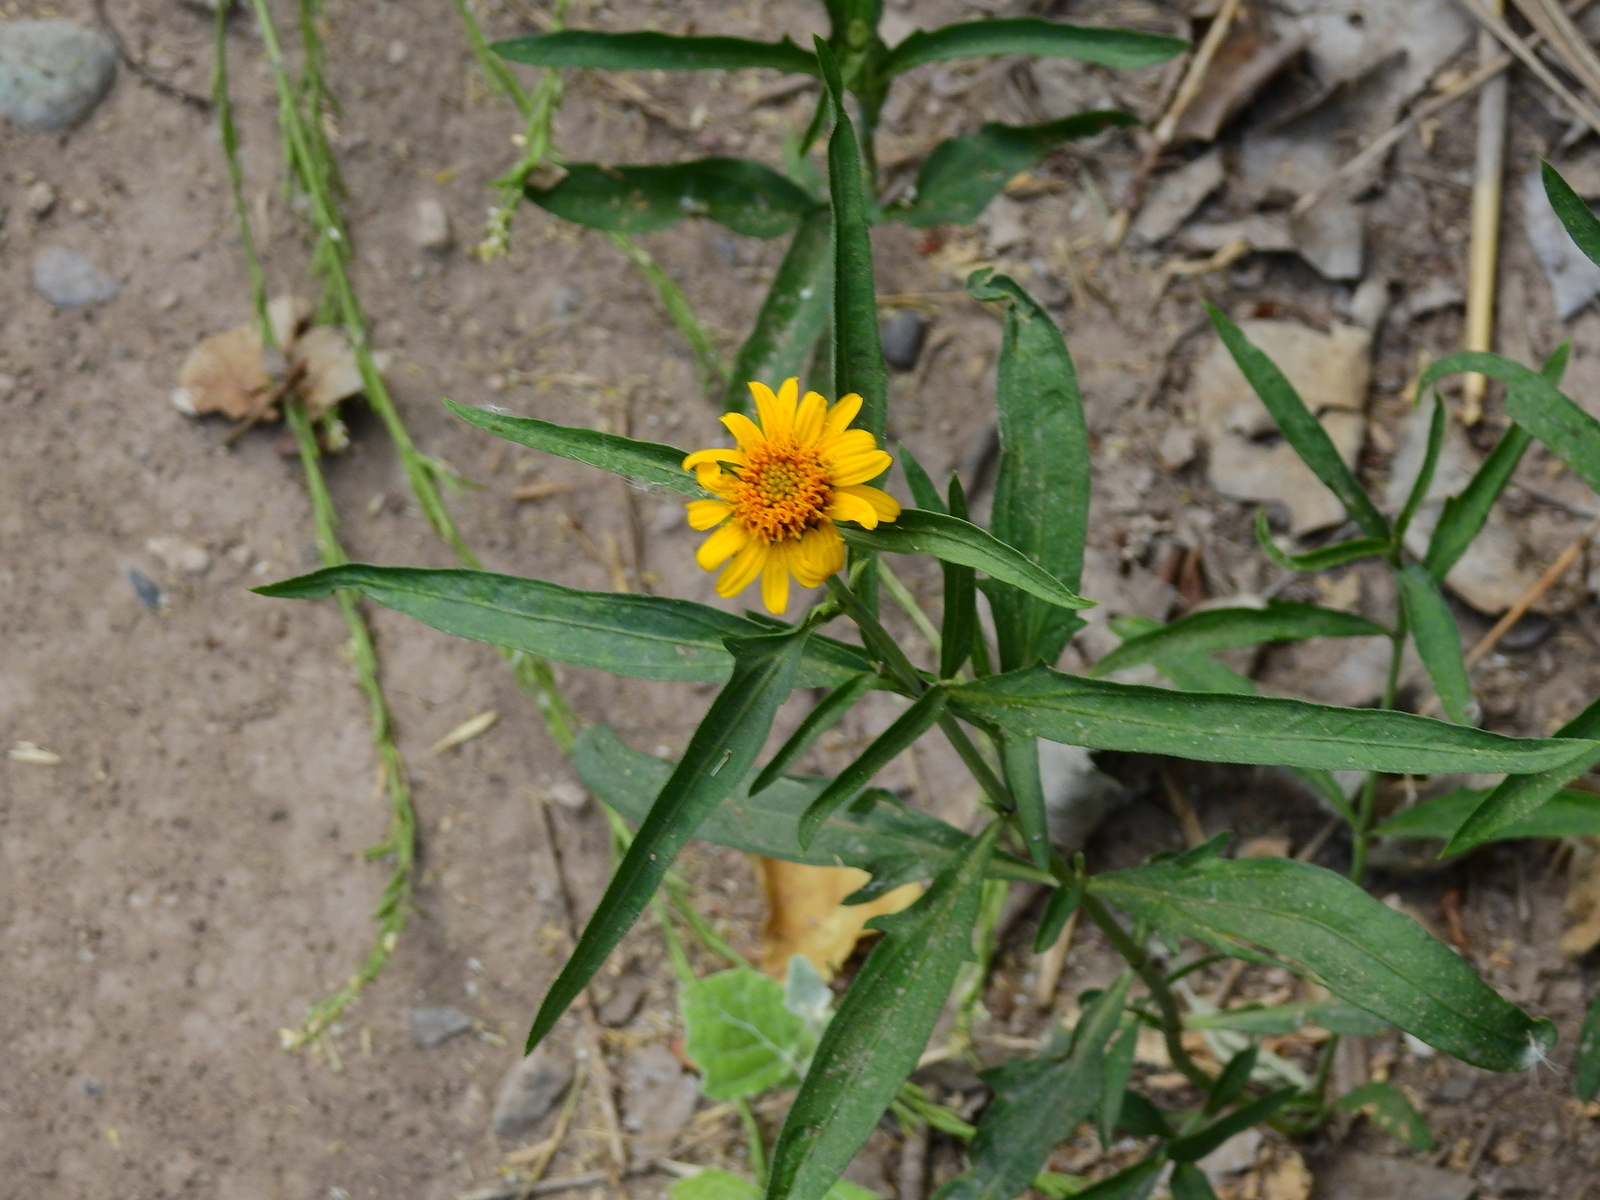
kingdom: Plantae
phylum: Tracheophyta
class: Magnoliopsida
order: Asterales
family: Asteraceae
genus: Pascalia
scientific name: Pascalia glauca
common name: Beach creeping oxeye
